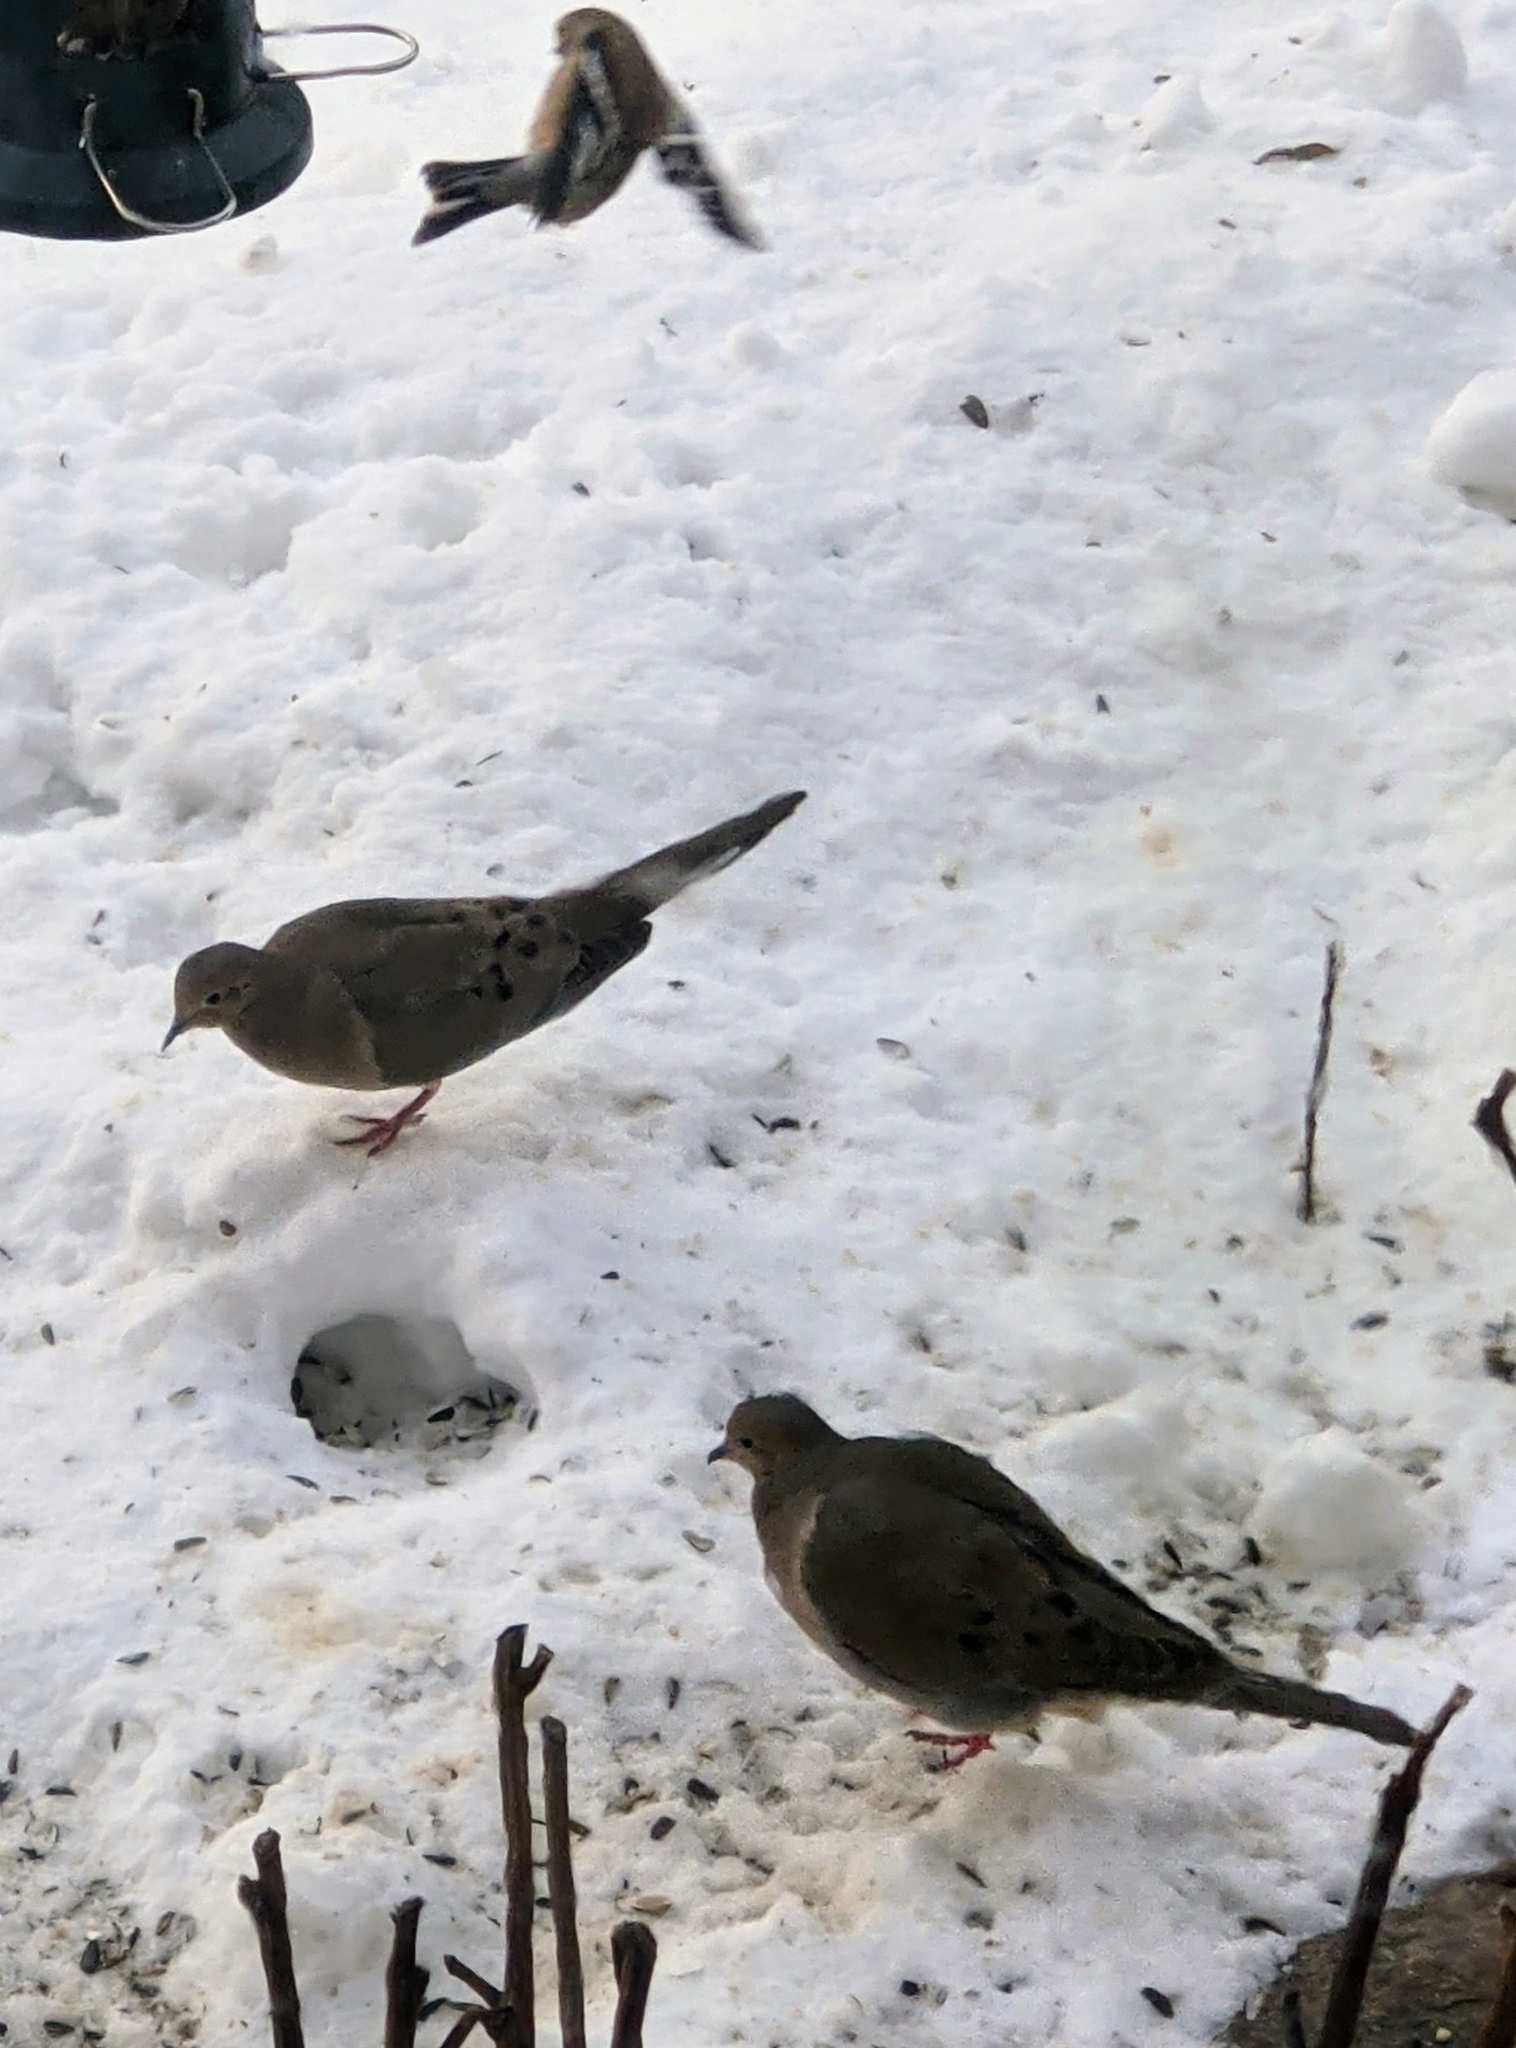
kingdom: Animalia
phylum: Chordata
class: Aves
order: Columbiformes
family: Columbidae
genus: Zenaida
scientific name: Zenaida macroura
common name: Mourning dove
